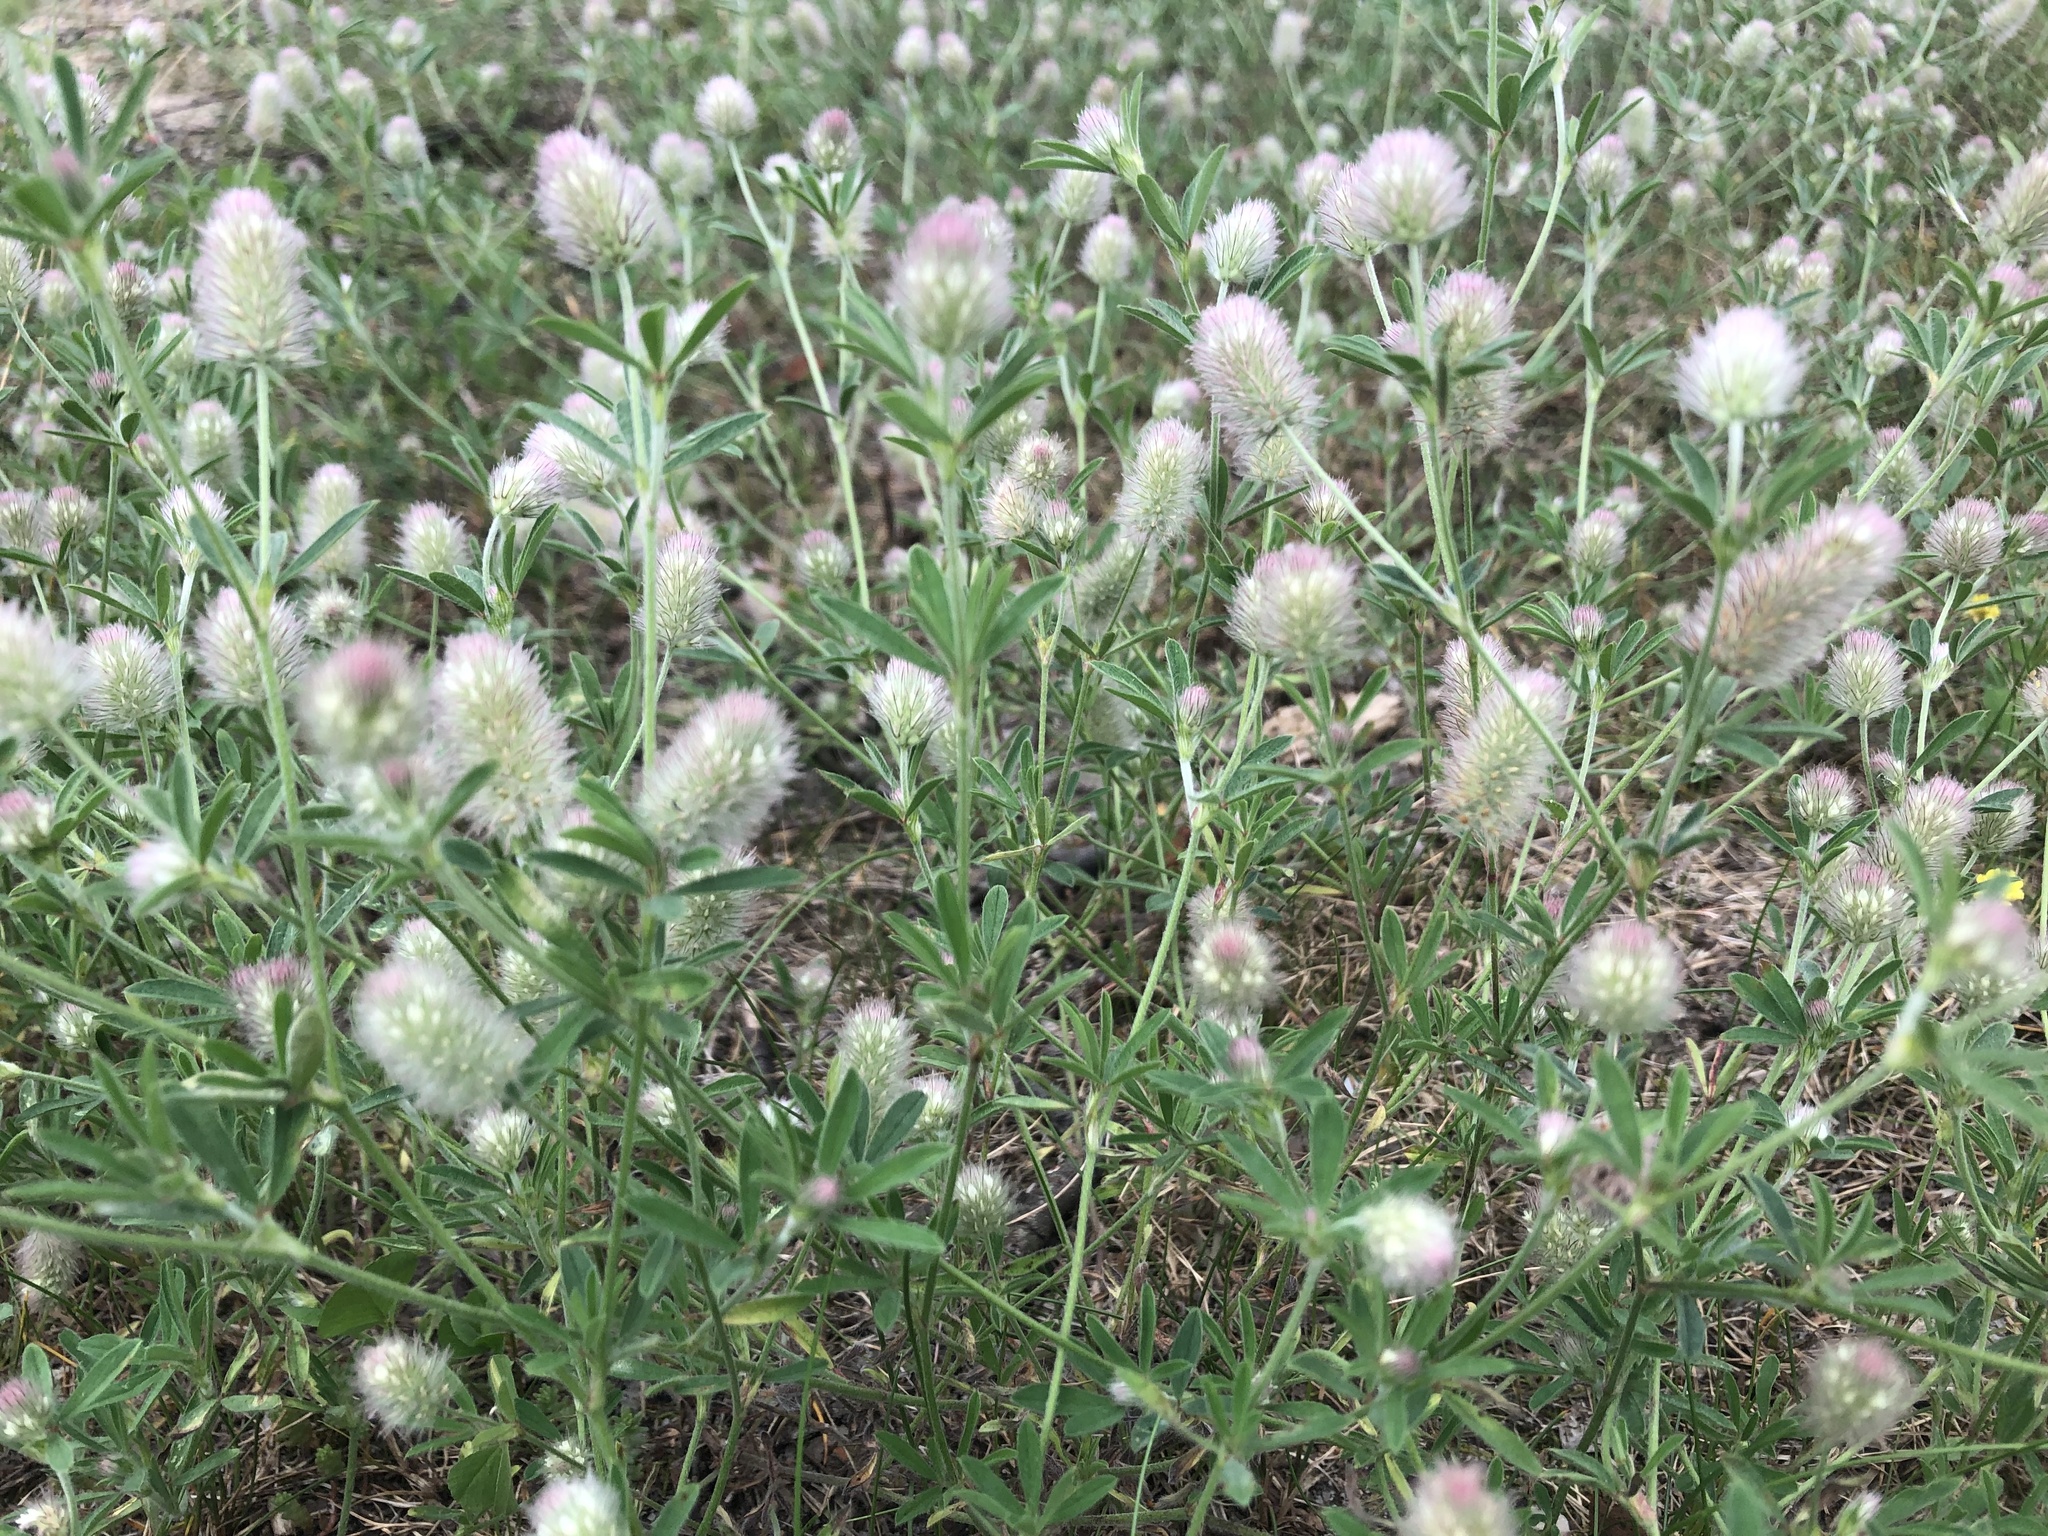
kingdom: Plantae
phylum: Tracheophyta
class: Magnoliopsida
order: Fabales
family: Fabaceae
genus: Trifolium
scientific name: Trifolium arvense
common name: Hare's-foot clover
